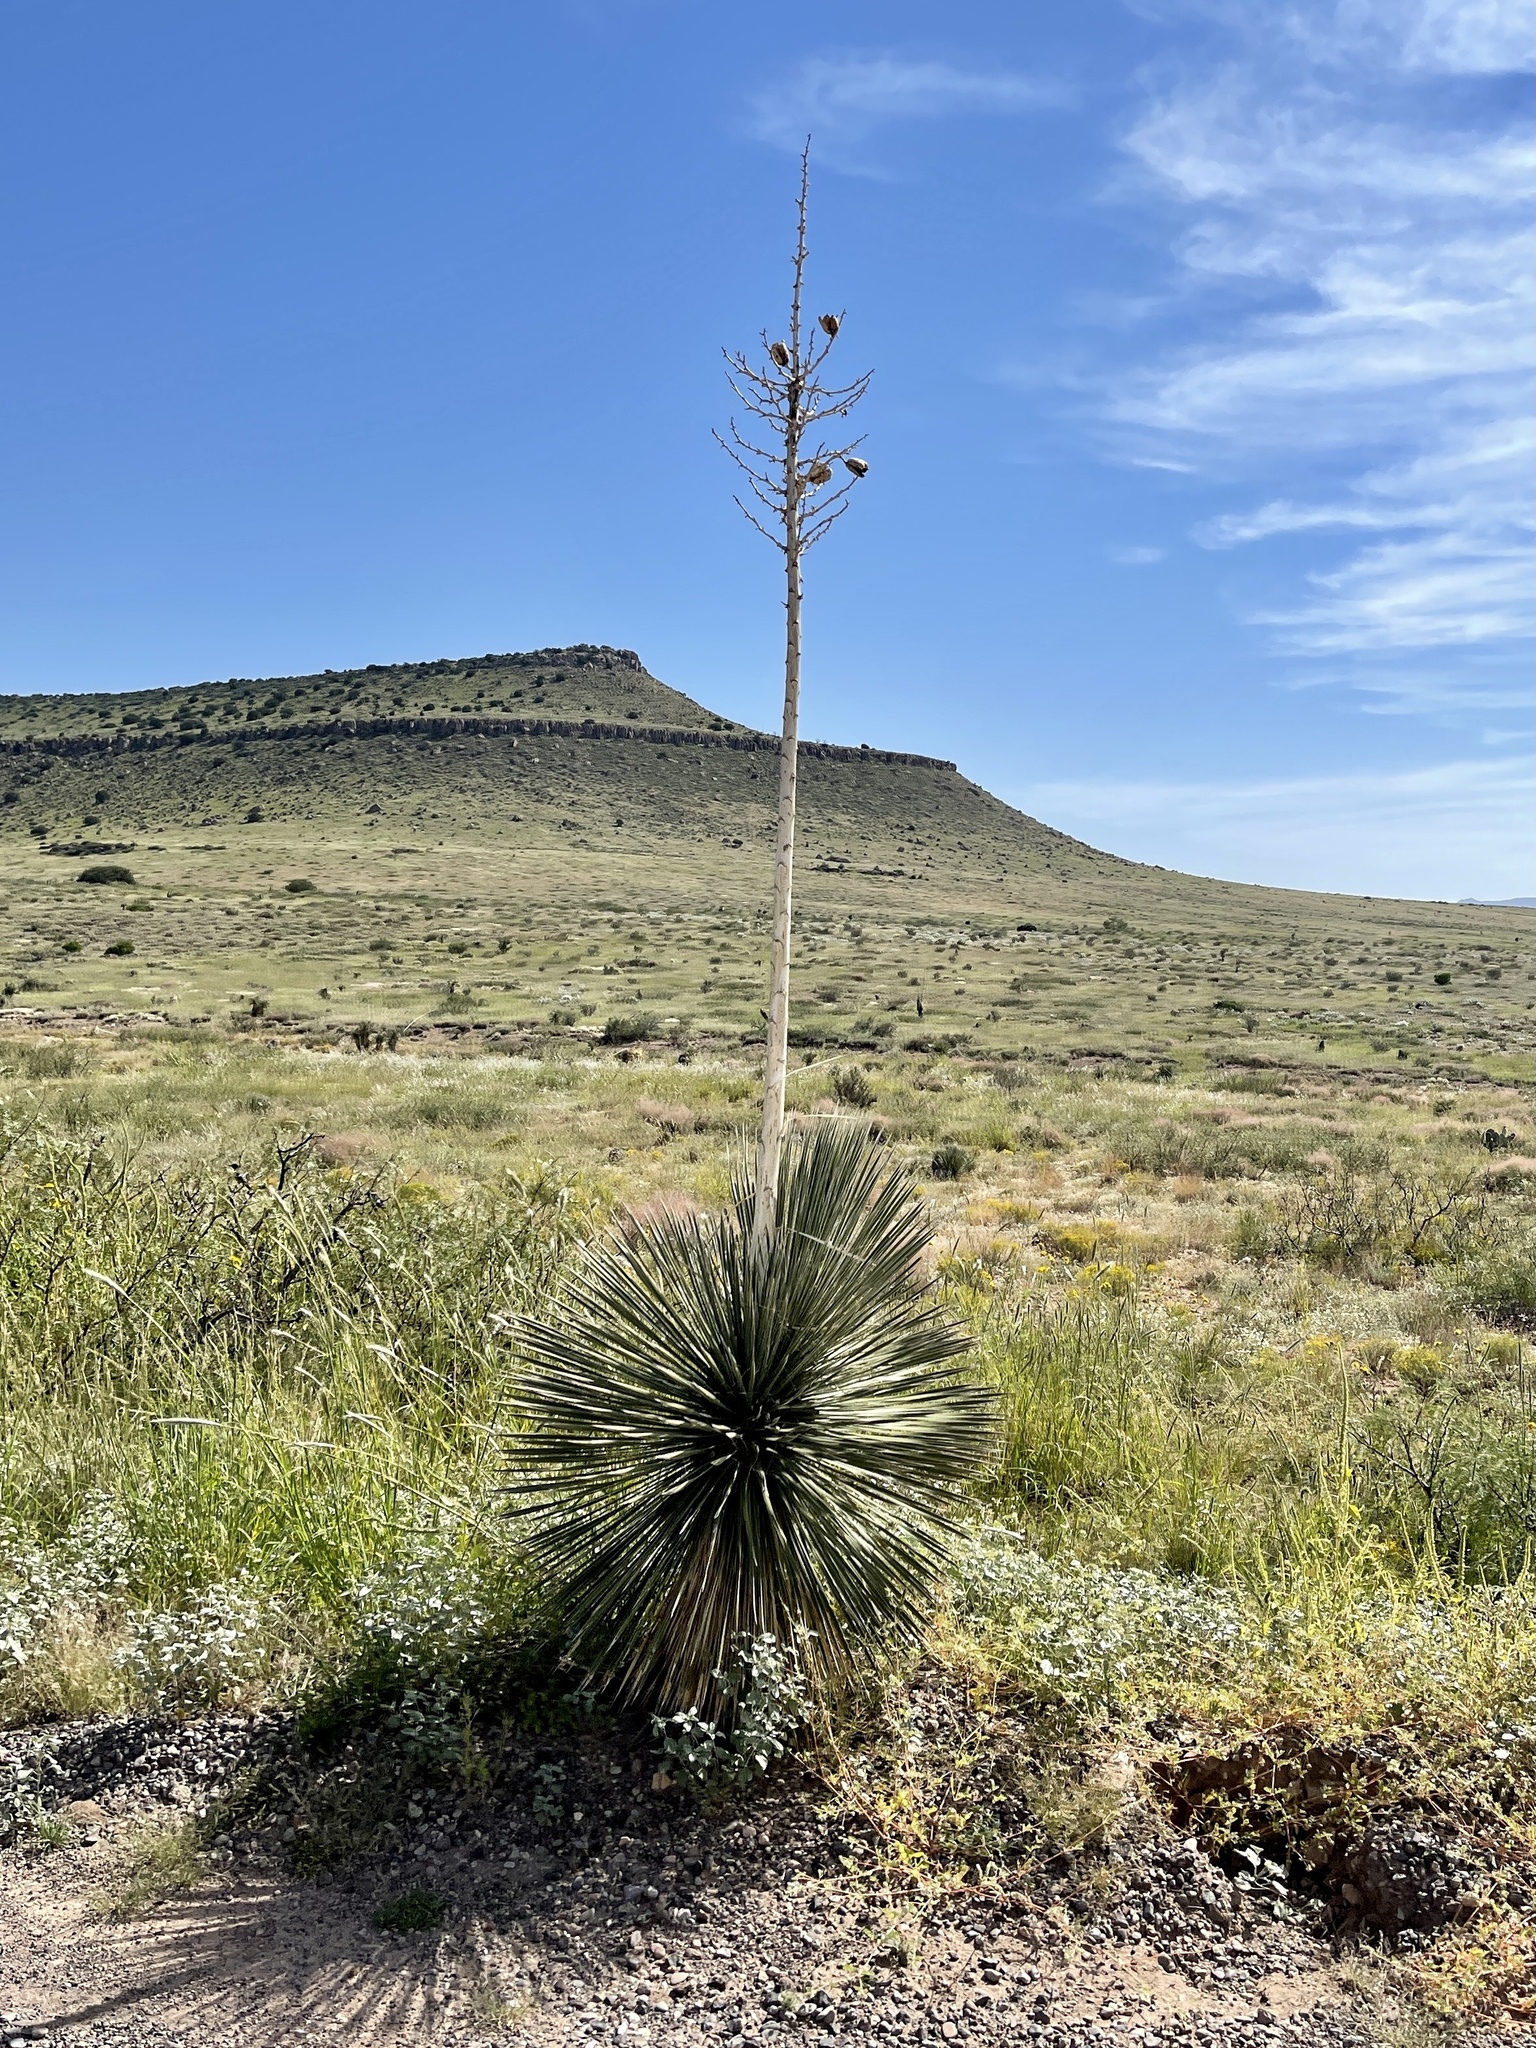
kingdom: Plantae
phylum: Tracheophyta
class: Liliopsida
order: Asparagales
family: Asparagaceae
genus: Yucca
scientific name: Yucca elata
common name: Palmella
